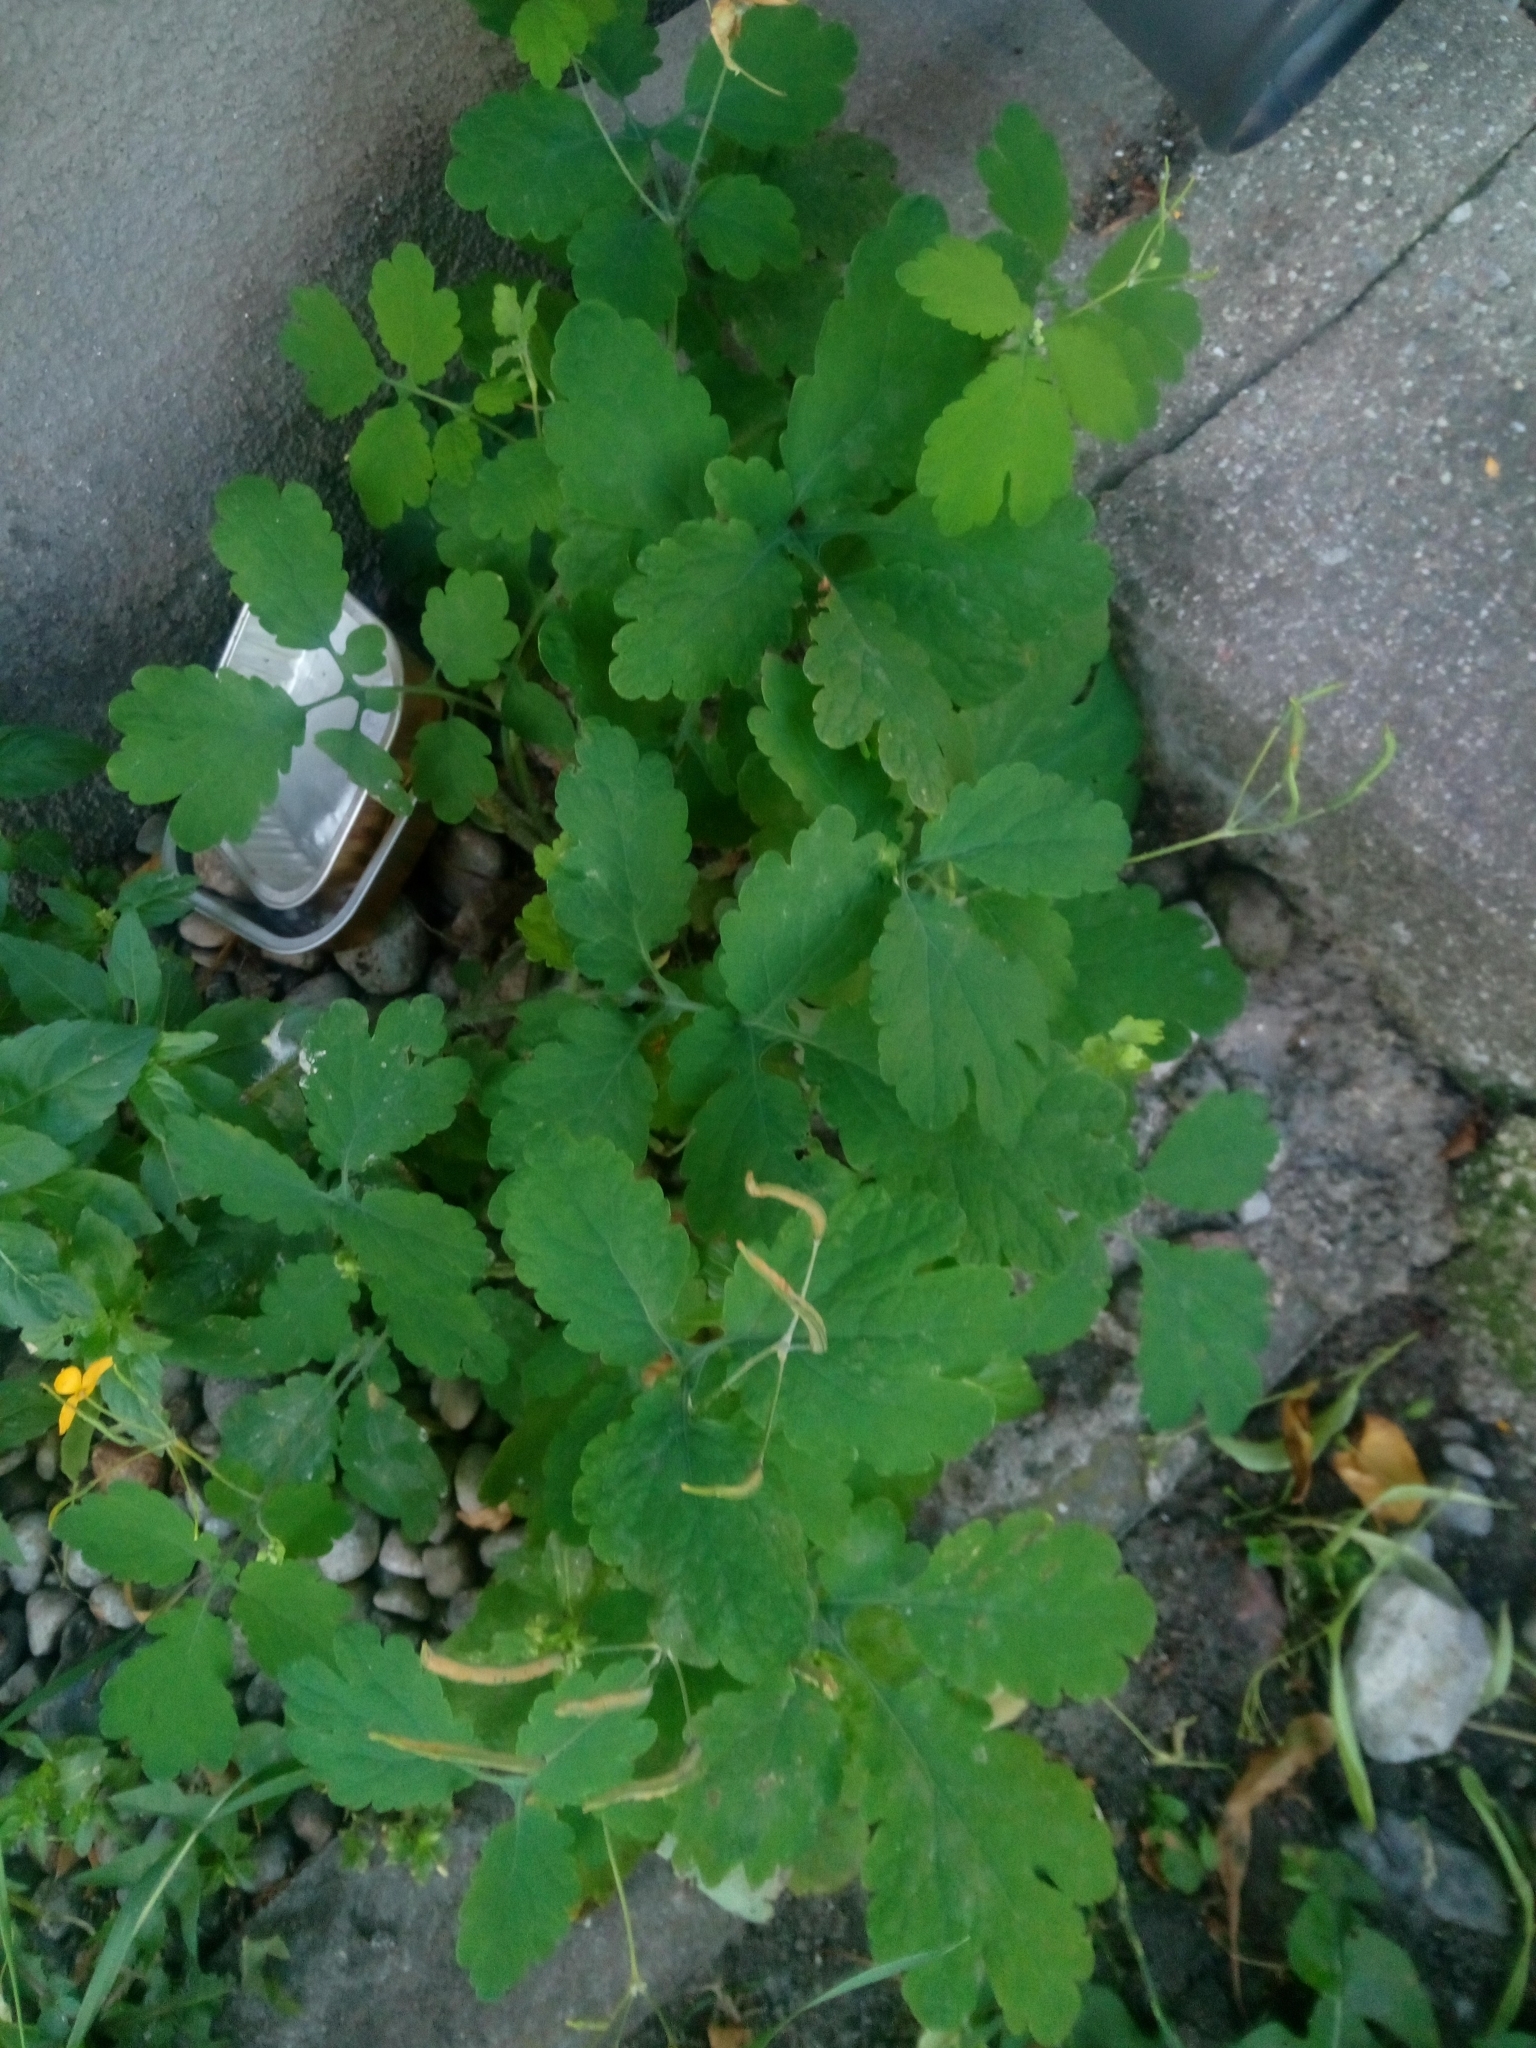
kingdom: Plantae
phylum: Tracheophyta
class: Magnoliopsida
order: Ranunculales
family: Papaveraceae
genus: Chelidonium
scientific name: Chelidonium majus
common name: Greater celandine
